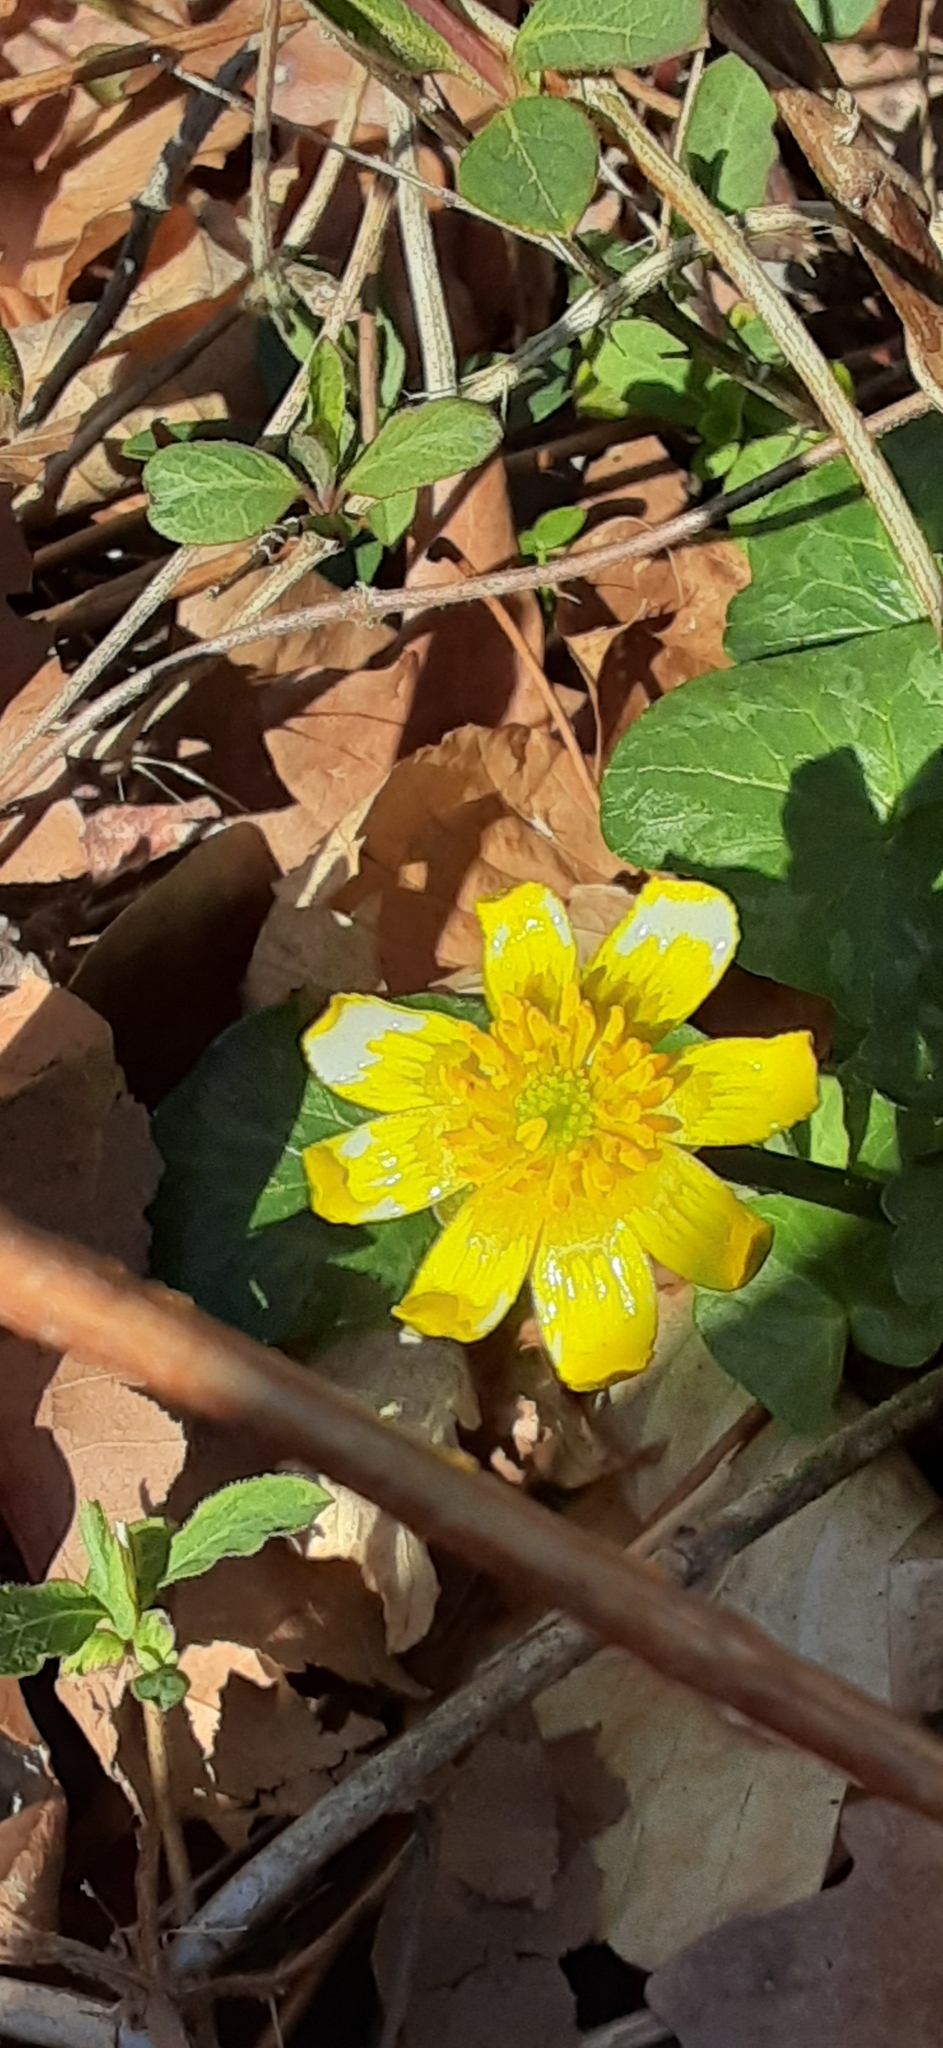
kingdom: Plantae
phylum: Tracheophyta
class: Magnoliopsida
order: Ranunculales
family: Ranunculaceae
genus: Ficaria
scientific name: Ficaria verna
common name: Lesser celandine
